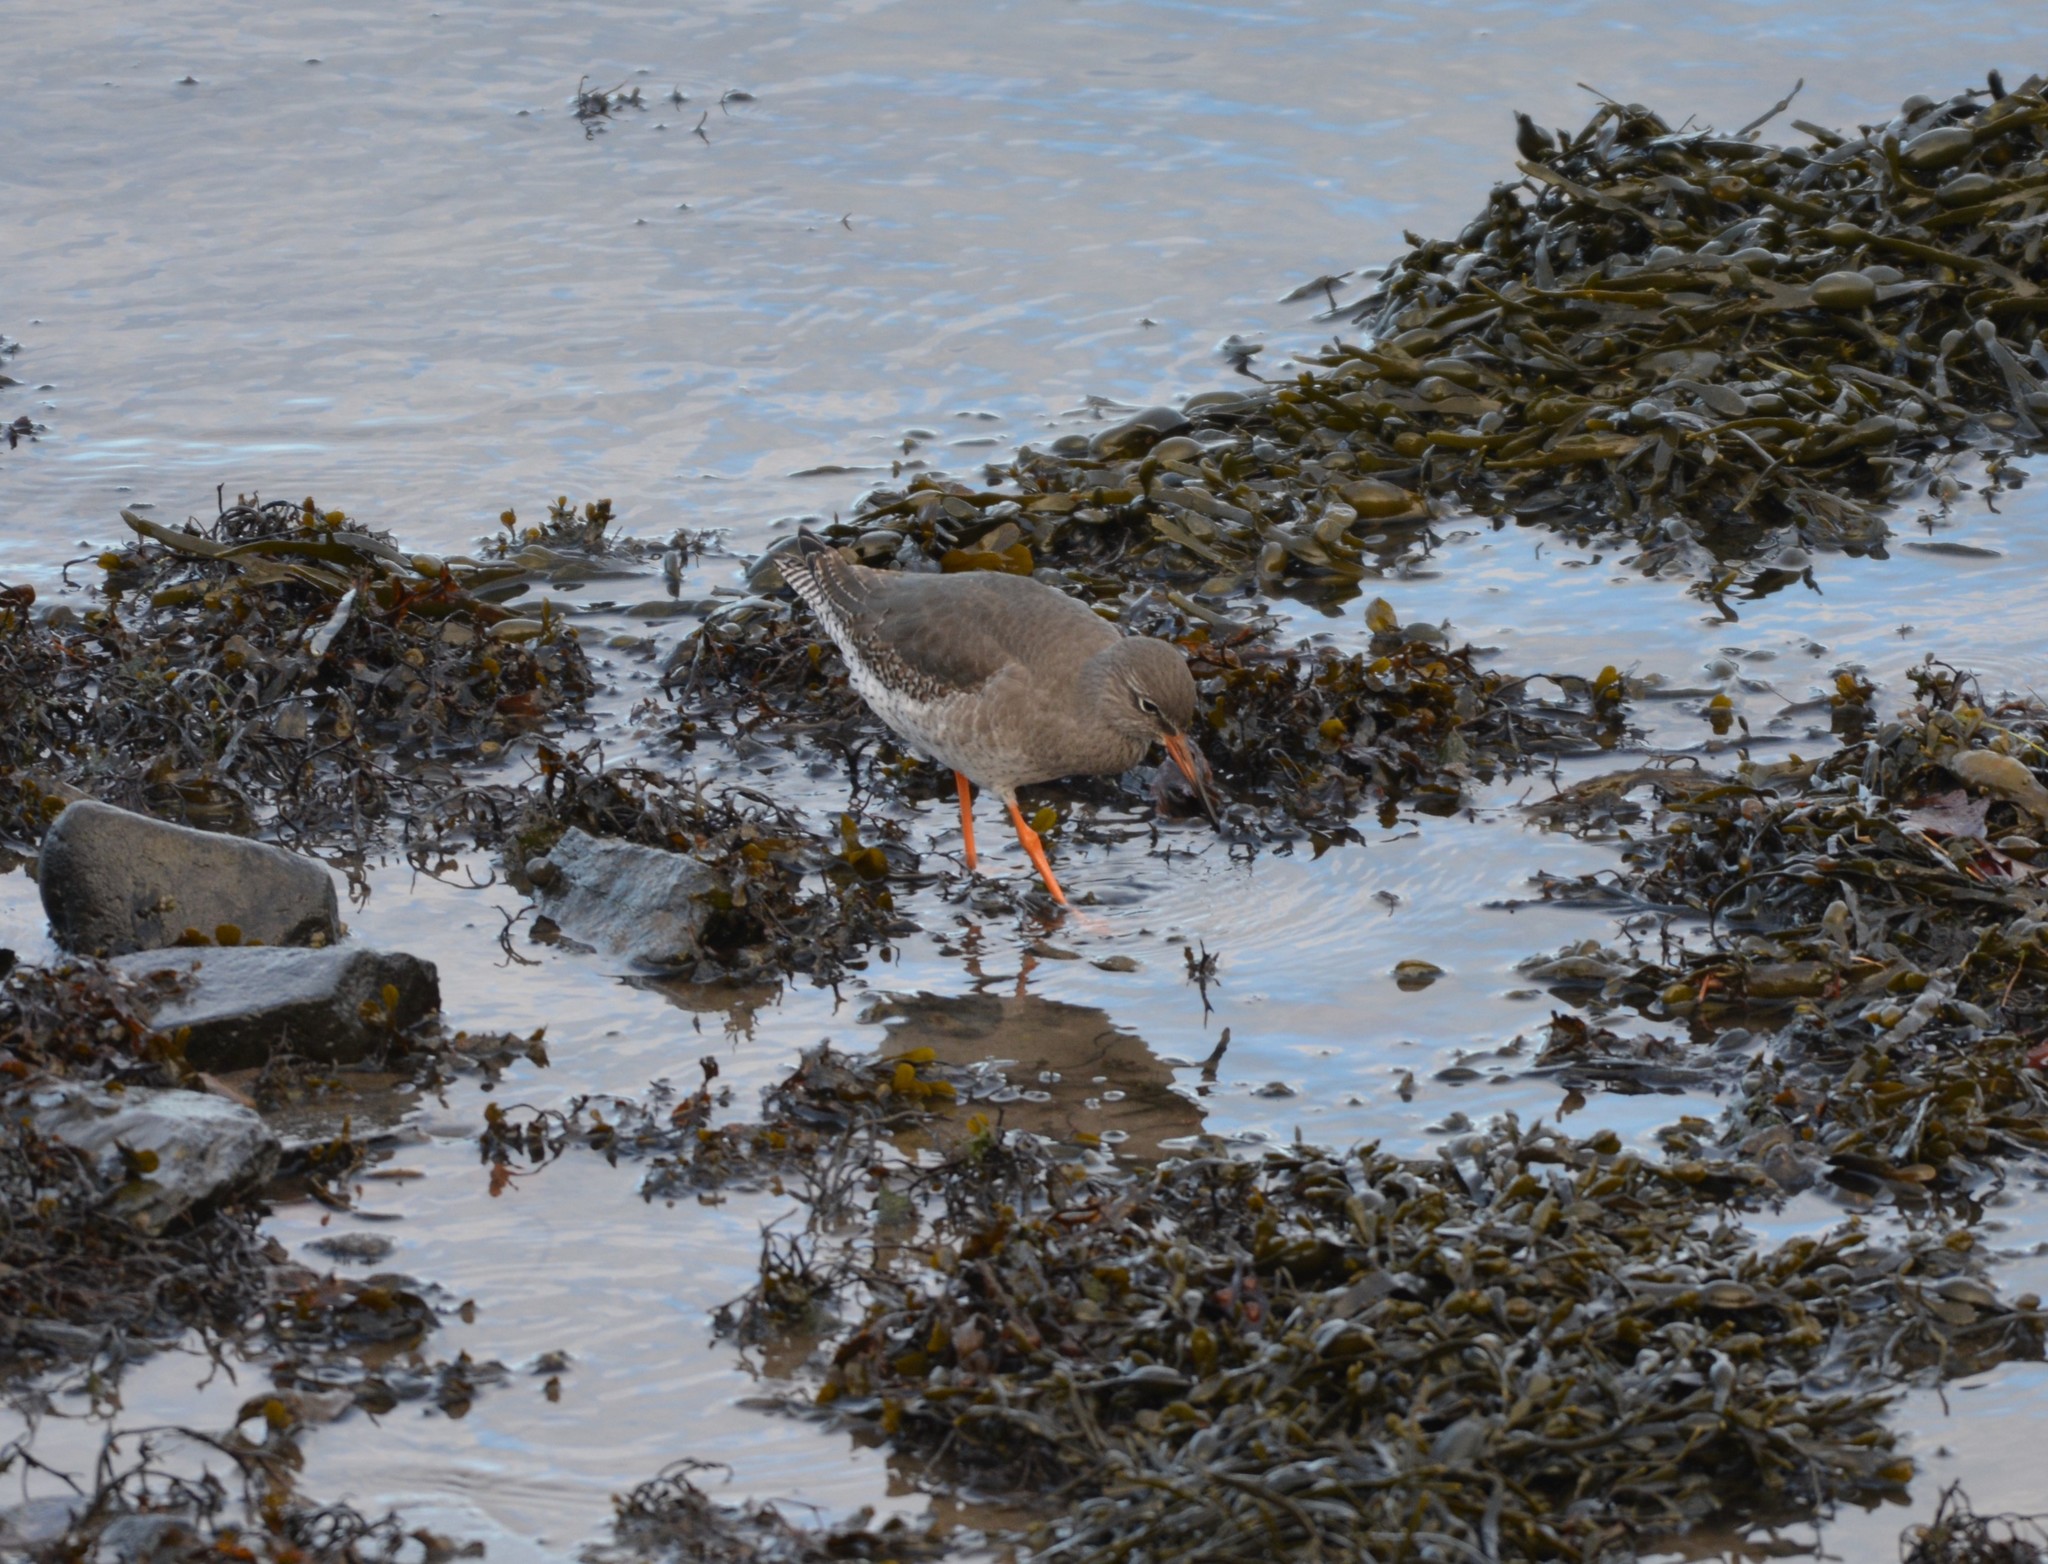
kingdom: Animalia
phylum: Chordata
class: Aves
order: Charadriiformes
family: Scolopacidae
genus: Tringa
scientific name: Tringa totanus
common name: Common redshank
